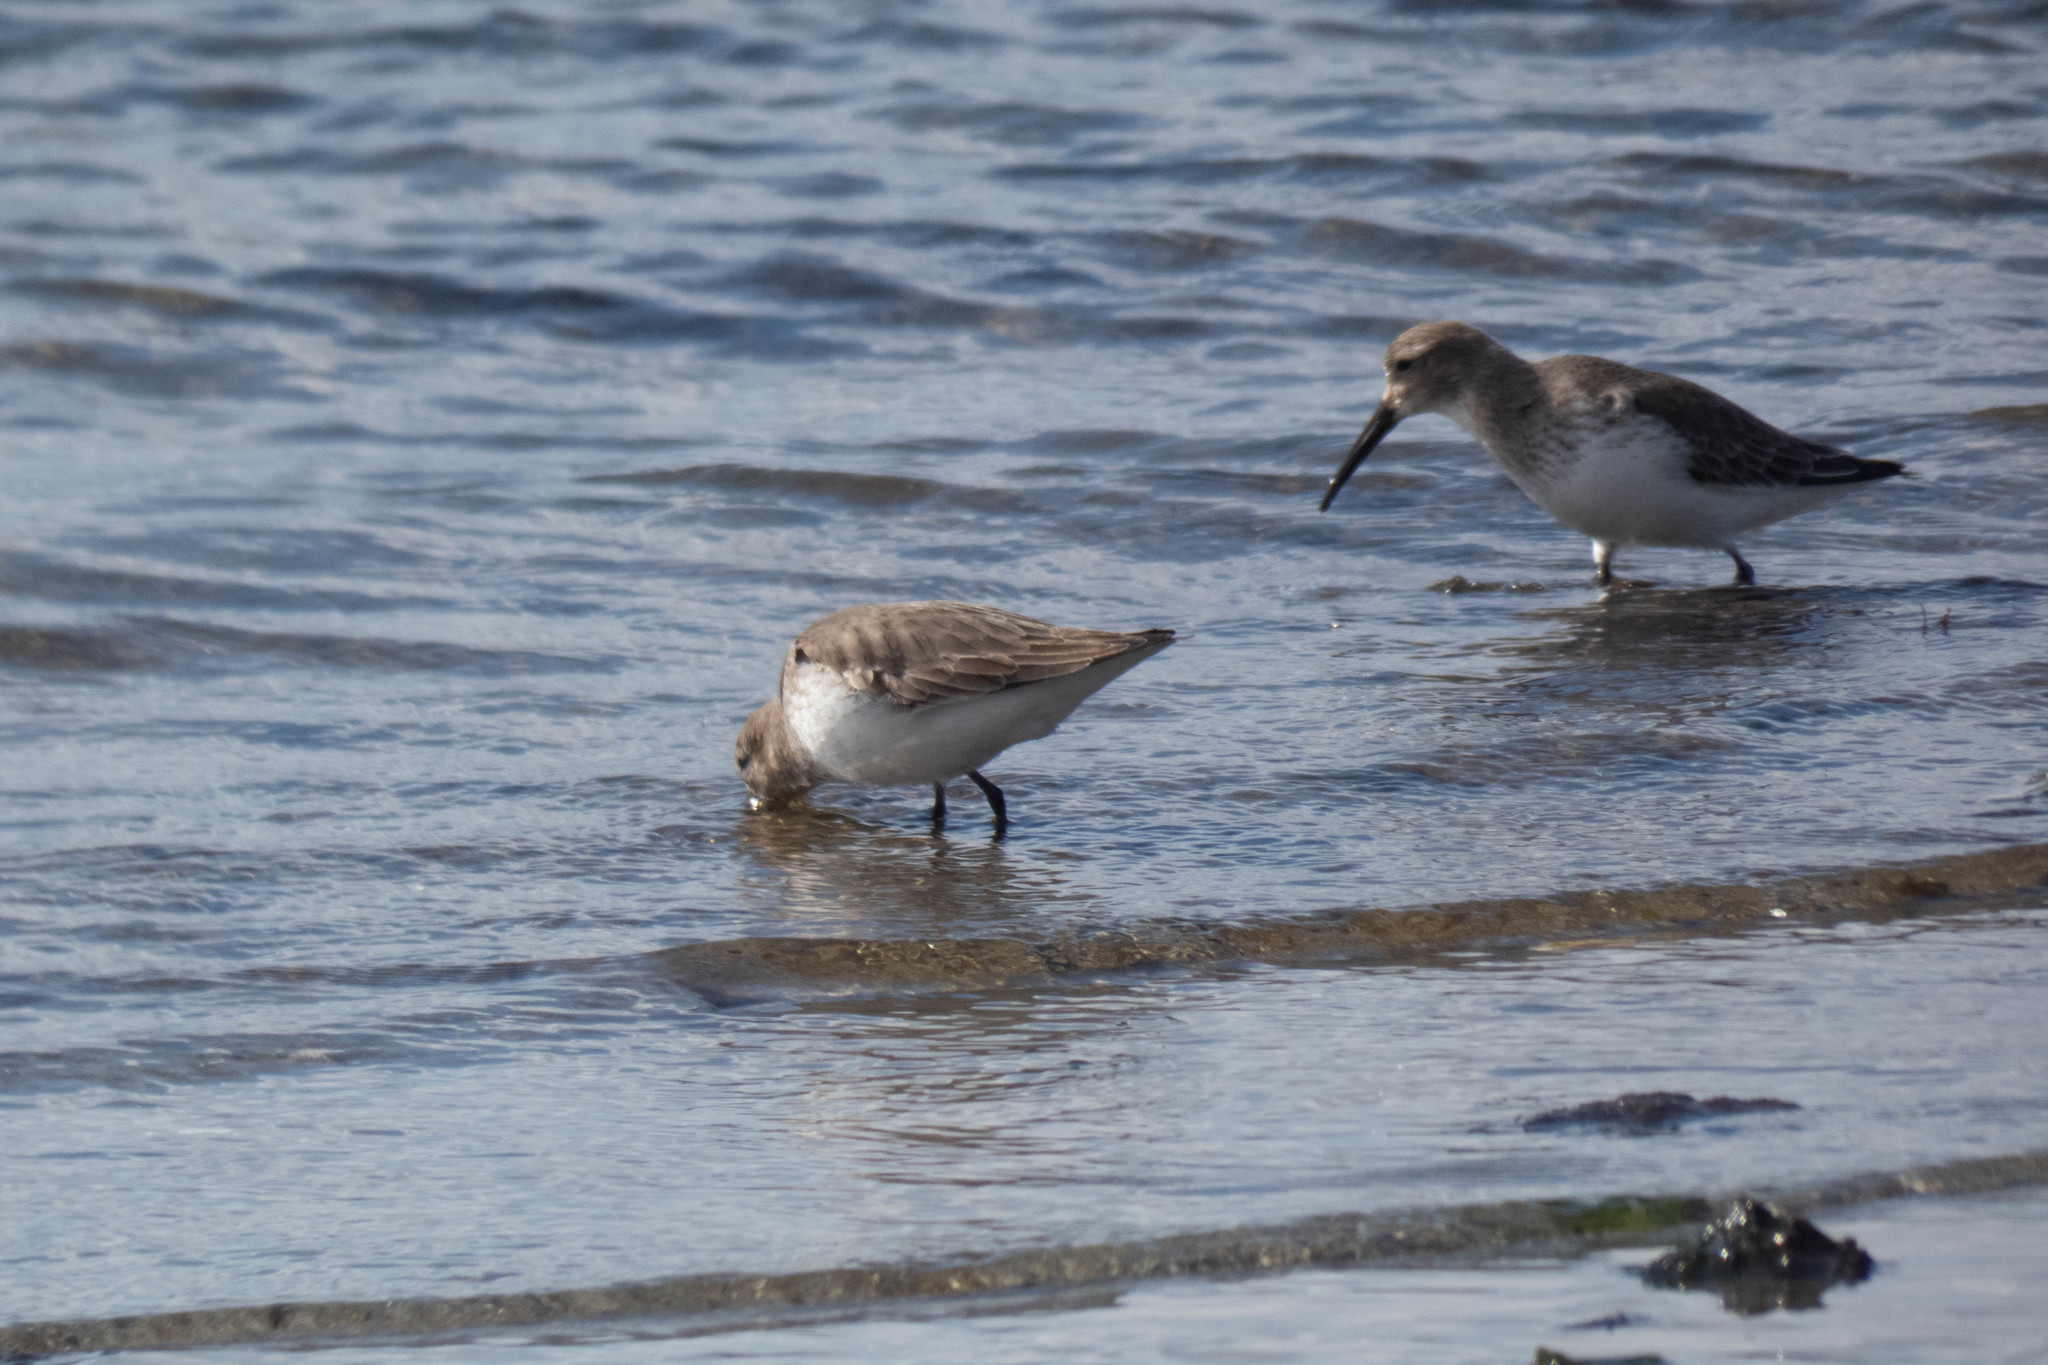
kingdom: Animalia
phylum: Chordata
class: Aves
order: Charadriiformes
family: Scolopacidae
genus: Calidris
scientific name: Calidris alpina
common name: Dunlin
